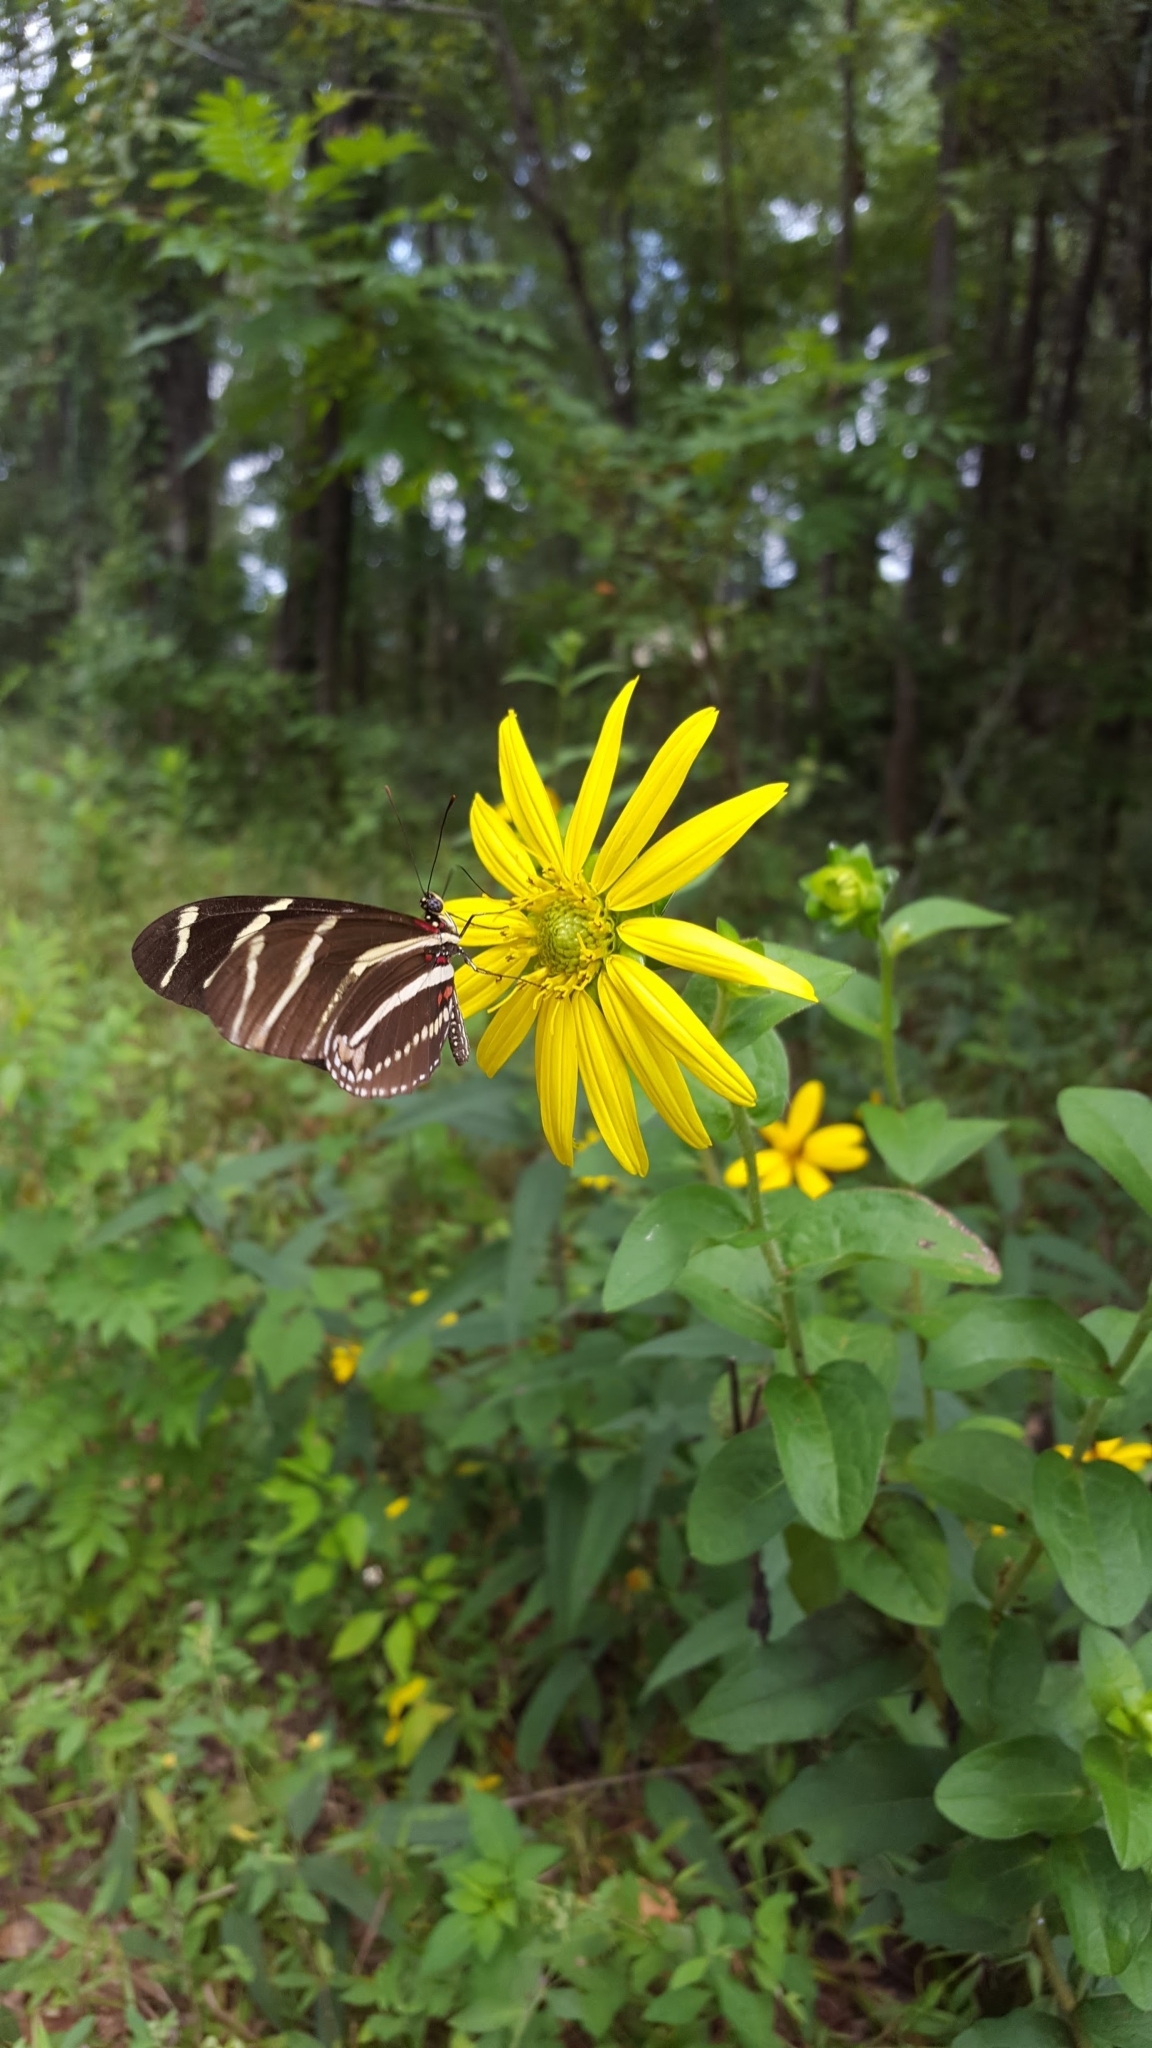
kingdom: Animalia
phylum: Arthropoda
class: Insecta
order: Lepidoptera
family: Nymphalidae
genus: Heliconius
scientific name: Heliconius charithonia
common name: Zebra long wing
